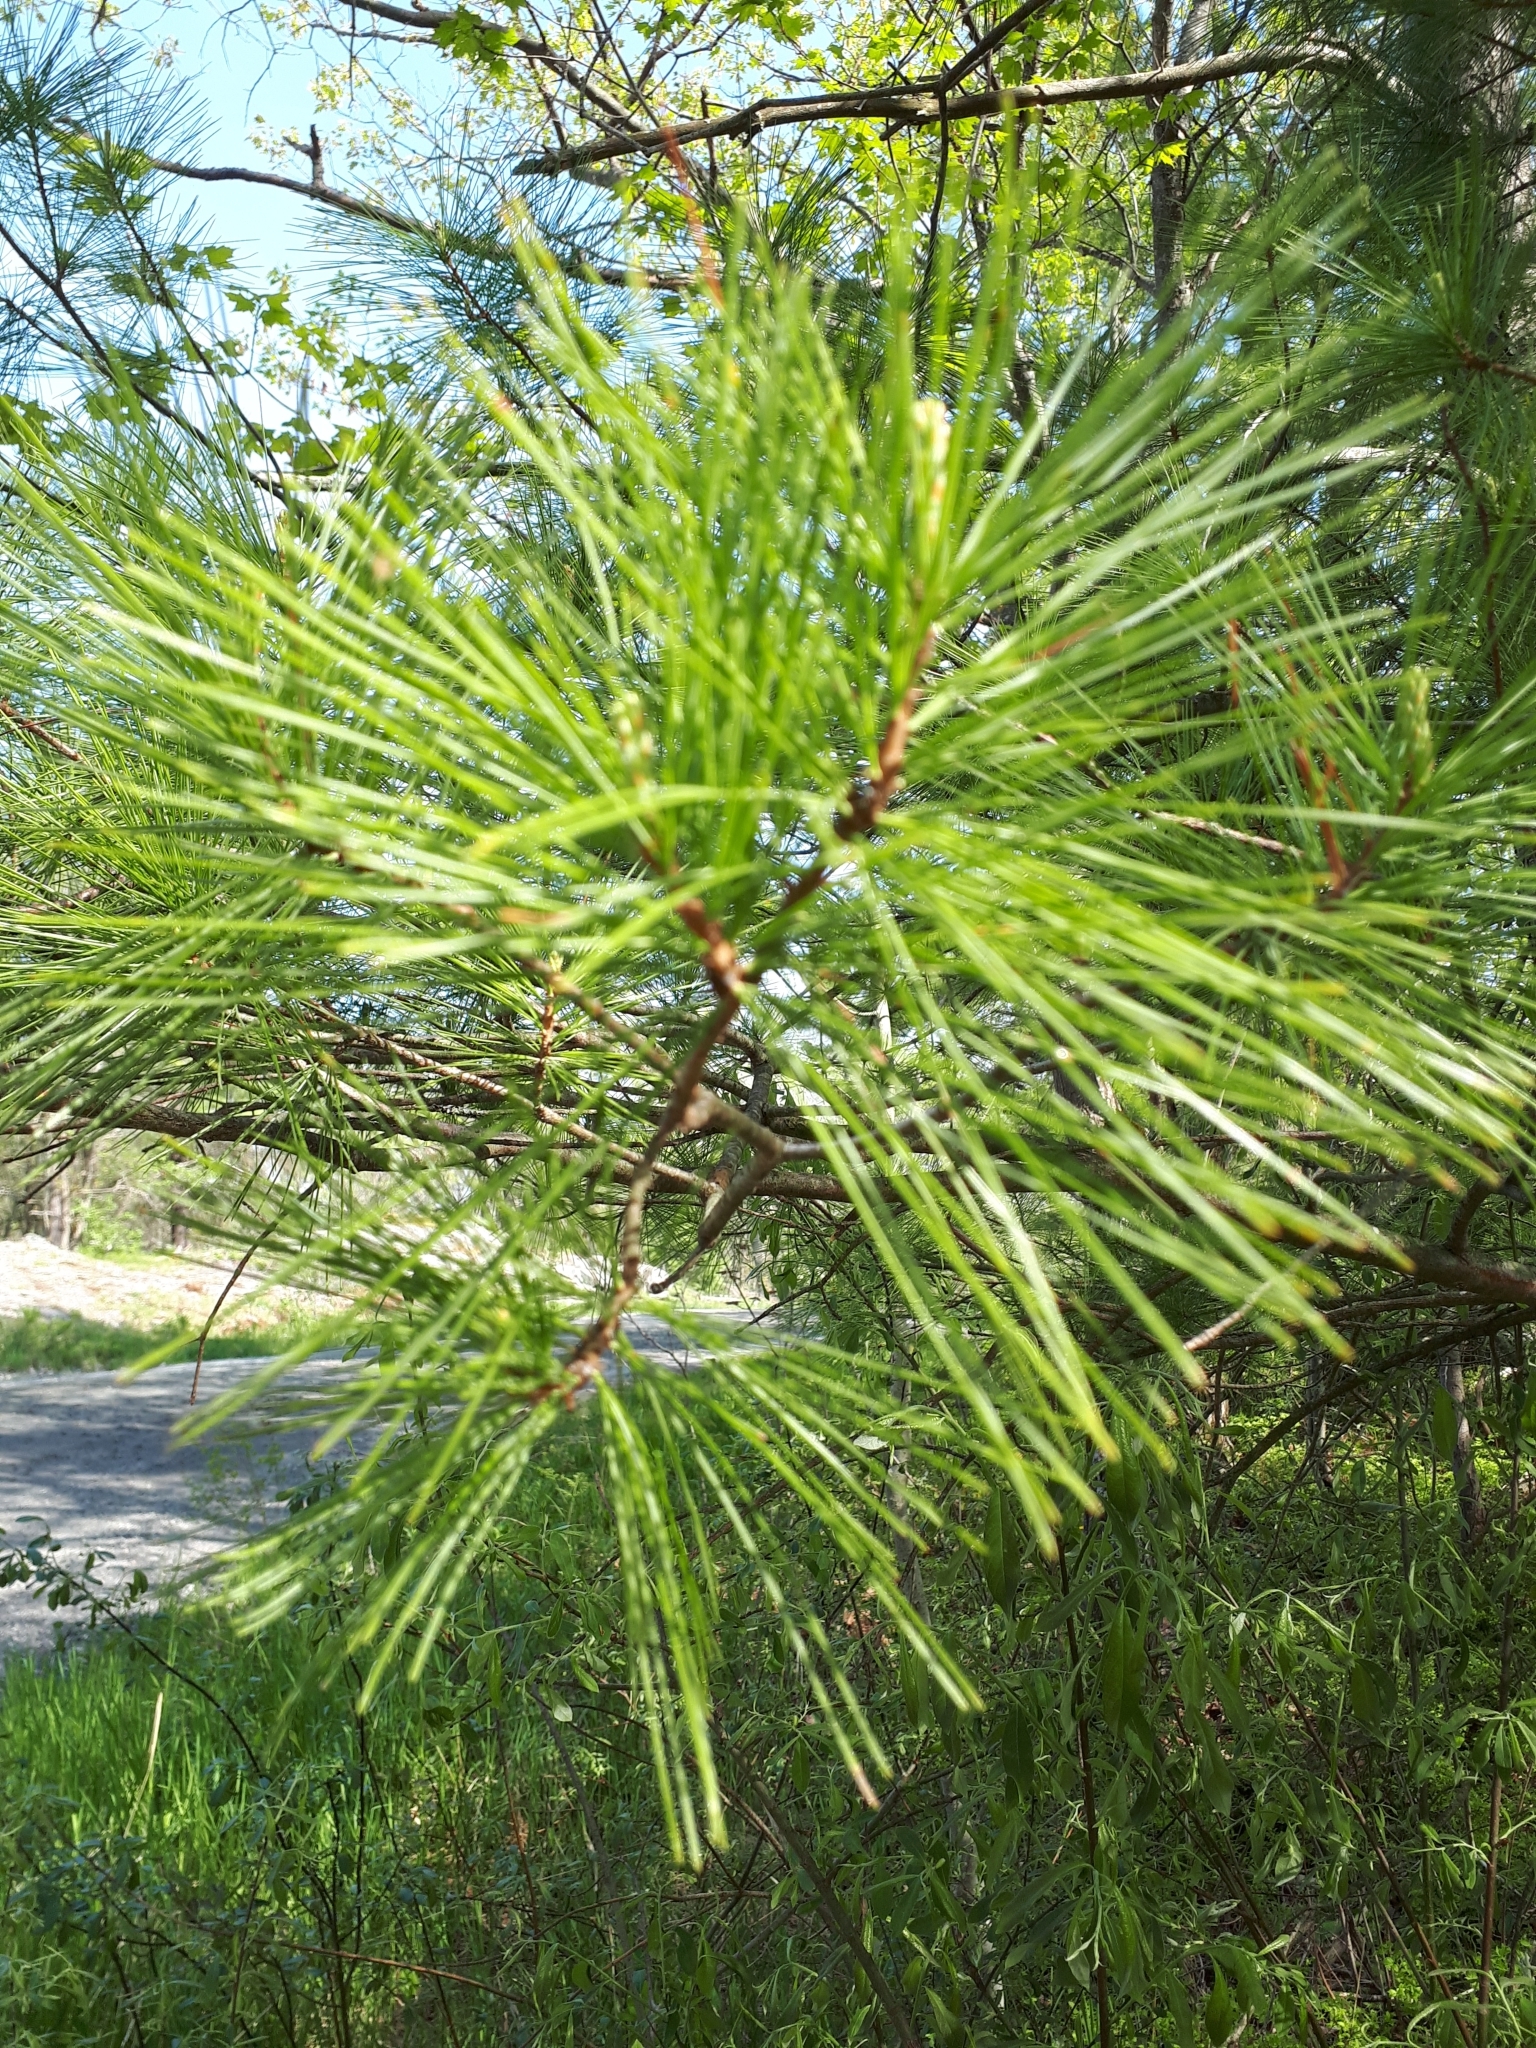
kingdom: Plantae
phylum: Tracheophyta
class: Pinopsida
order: Pinales
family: Pinaceae
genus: Pinus
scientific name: Pinus strobus
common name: Weymouth pine
